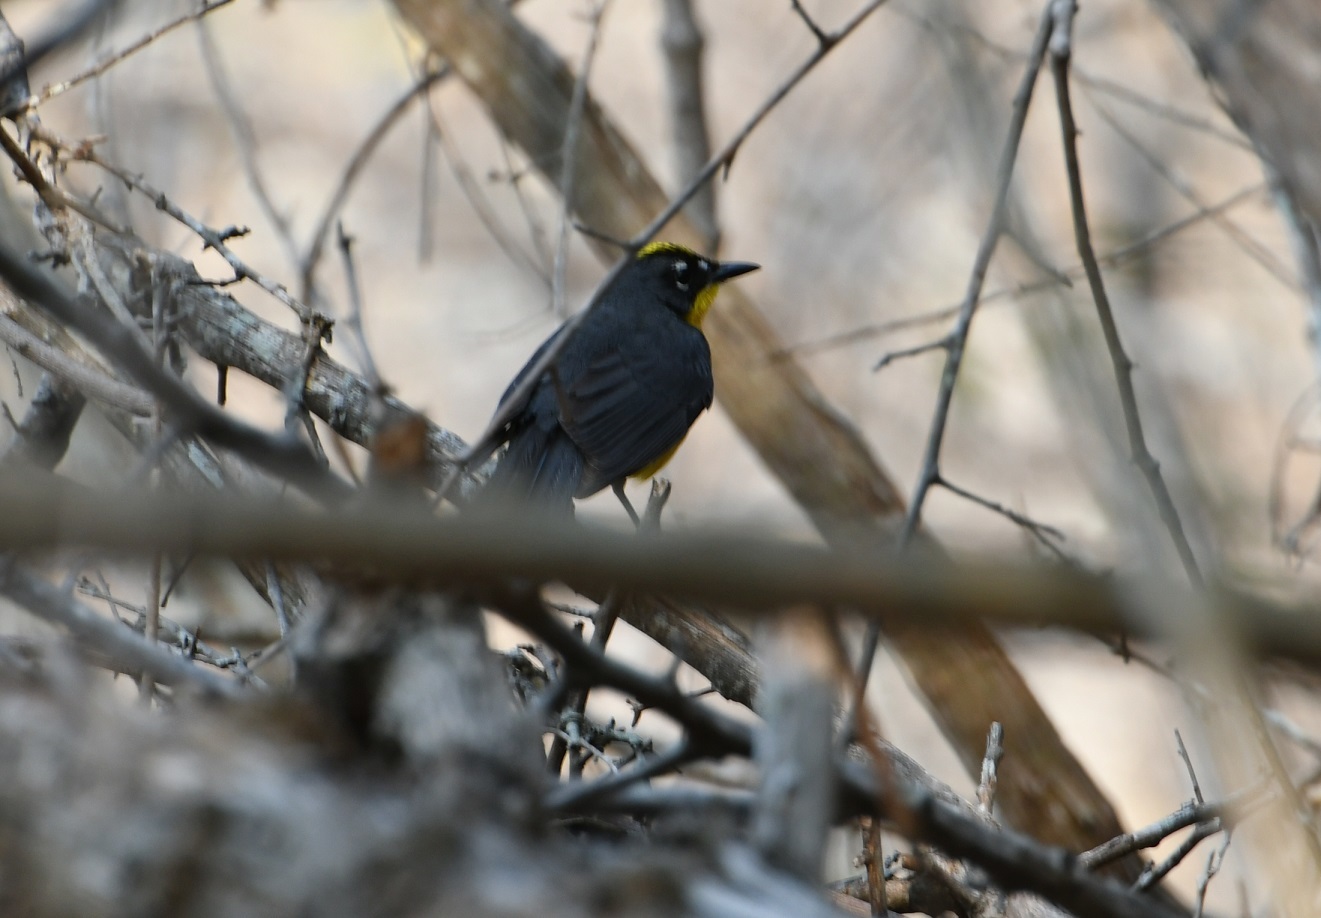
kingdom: Animalia
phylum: Chordata
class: Aves
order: Passeriformes
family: Parulidae
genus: Basileuterus
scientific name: Basileuterus lachrymosus
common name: Fan-tailed warbler
